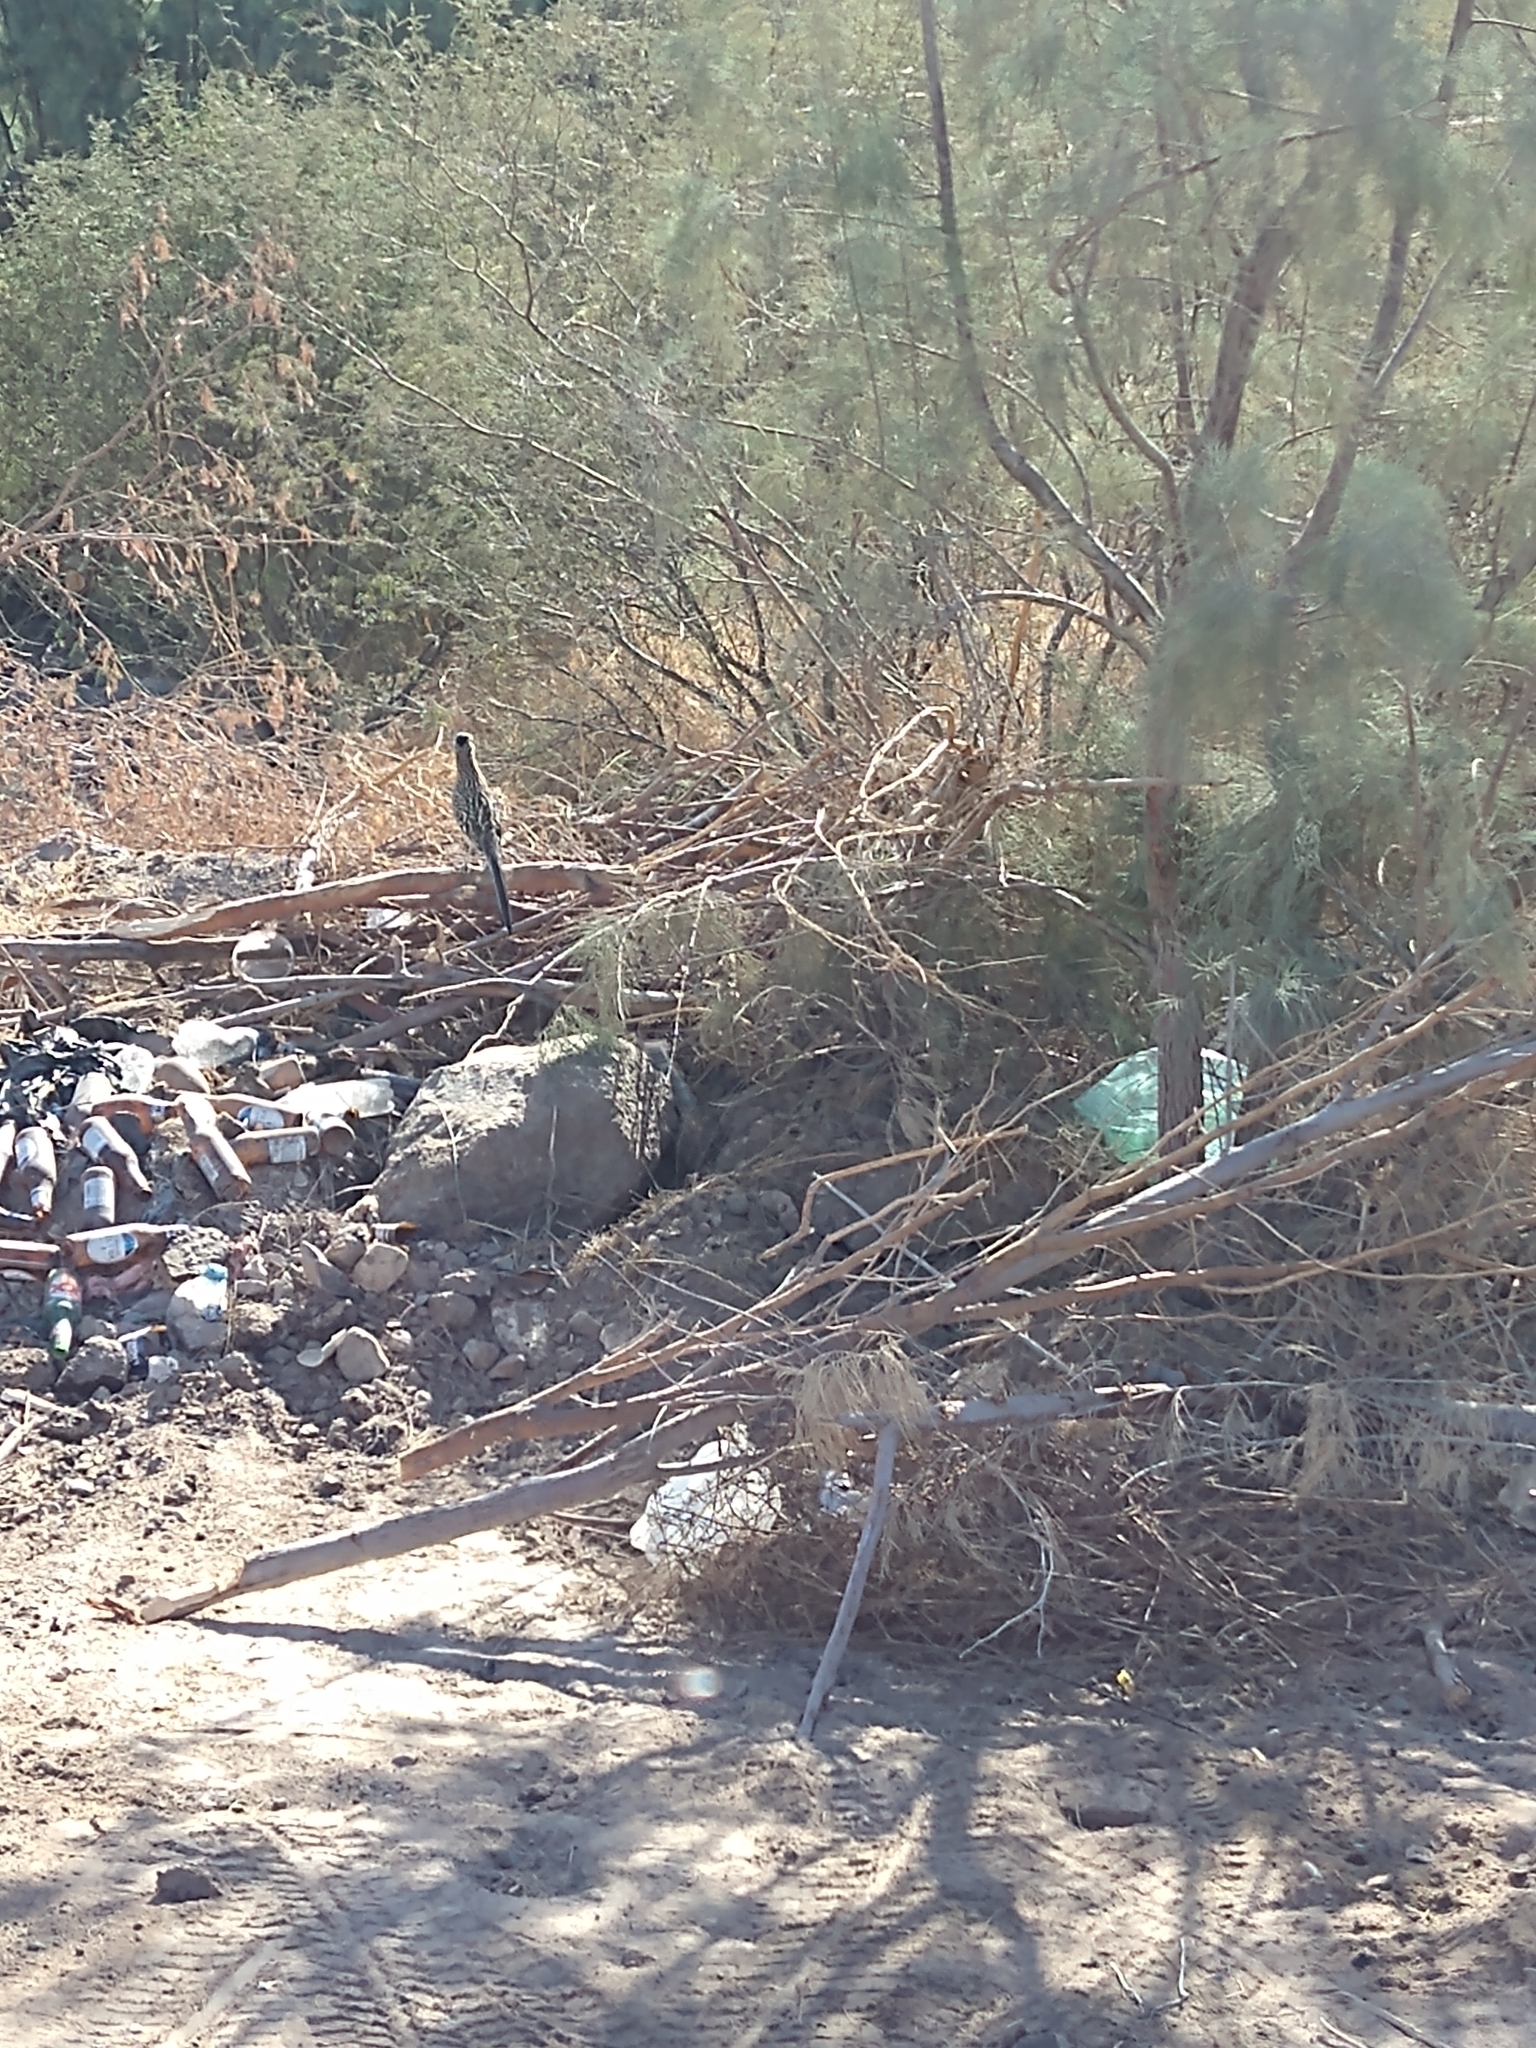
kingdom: Animalia
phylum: Chordata
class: Aves
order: Cuculiformes
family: Cuculidae
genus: Geococcyx
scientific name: Geococcyx californianus
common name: Greater roadrunner
